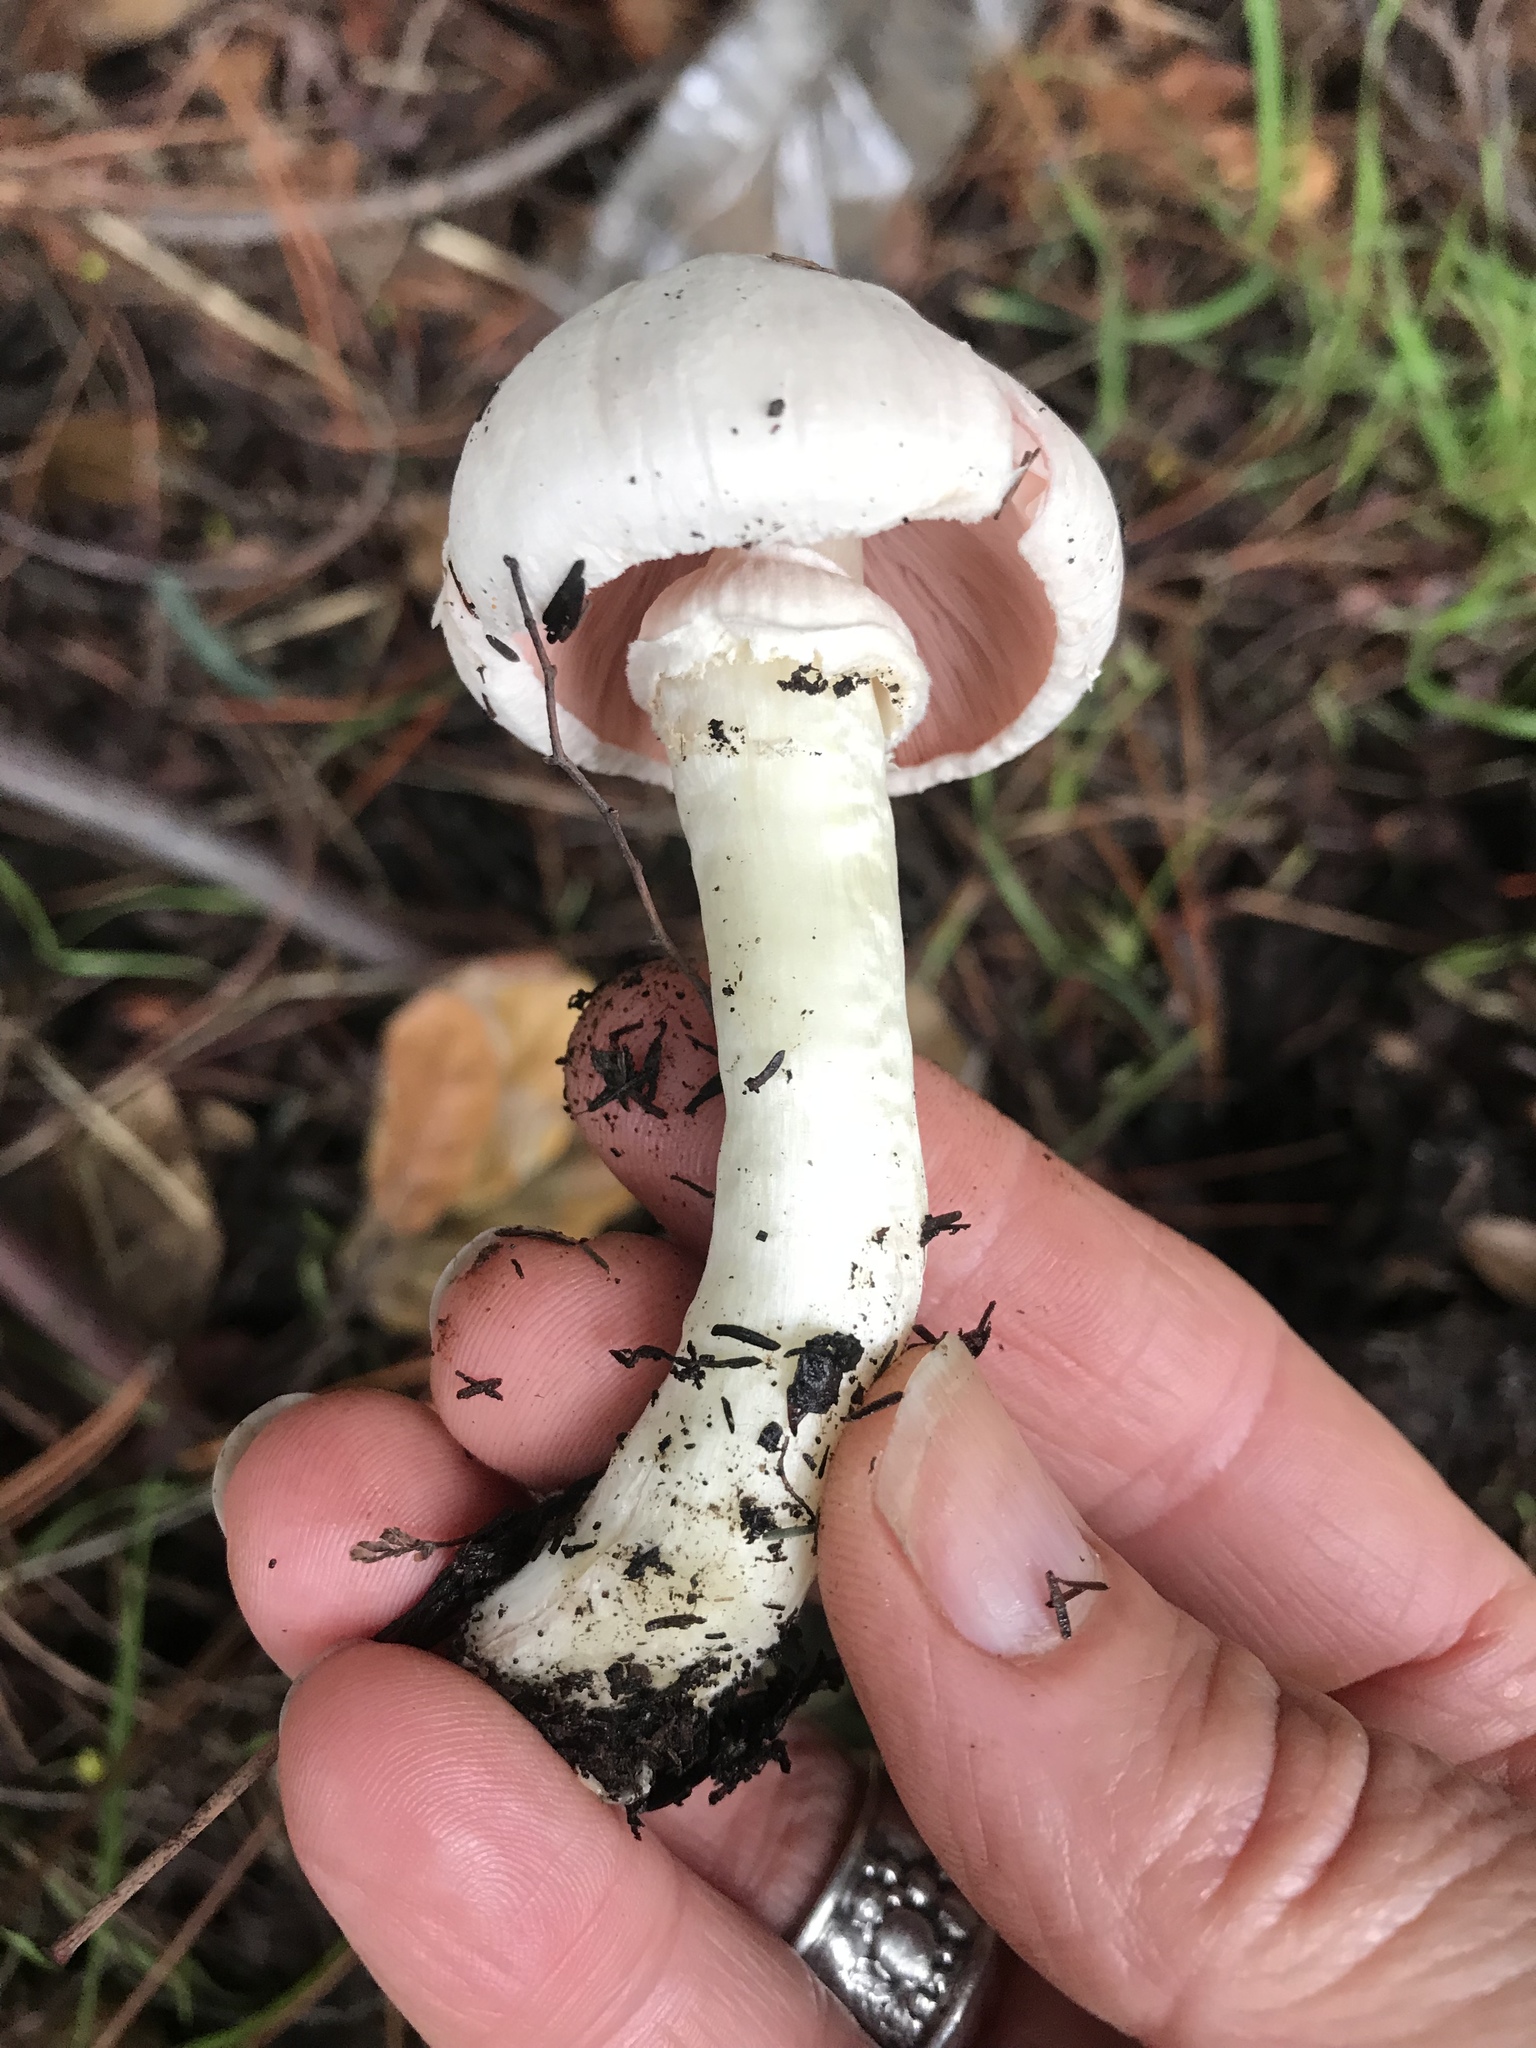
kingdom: Fungi
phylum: Basidiomycota
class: Agaricomycetes
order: Agaricales
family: Agaricaceae
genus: Agaricus
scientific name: Agaricus californicus
